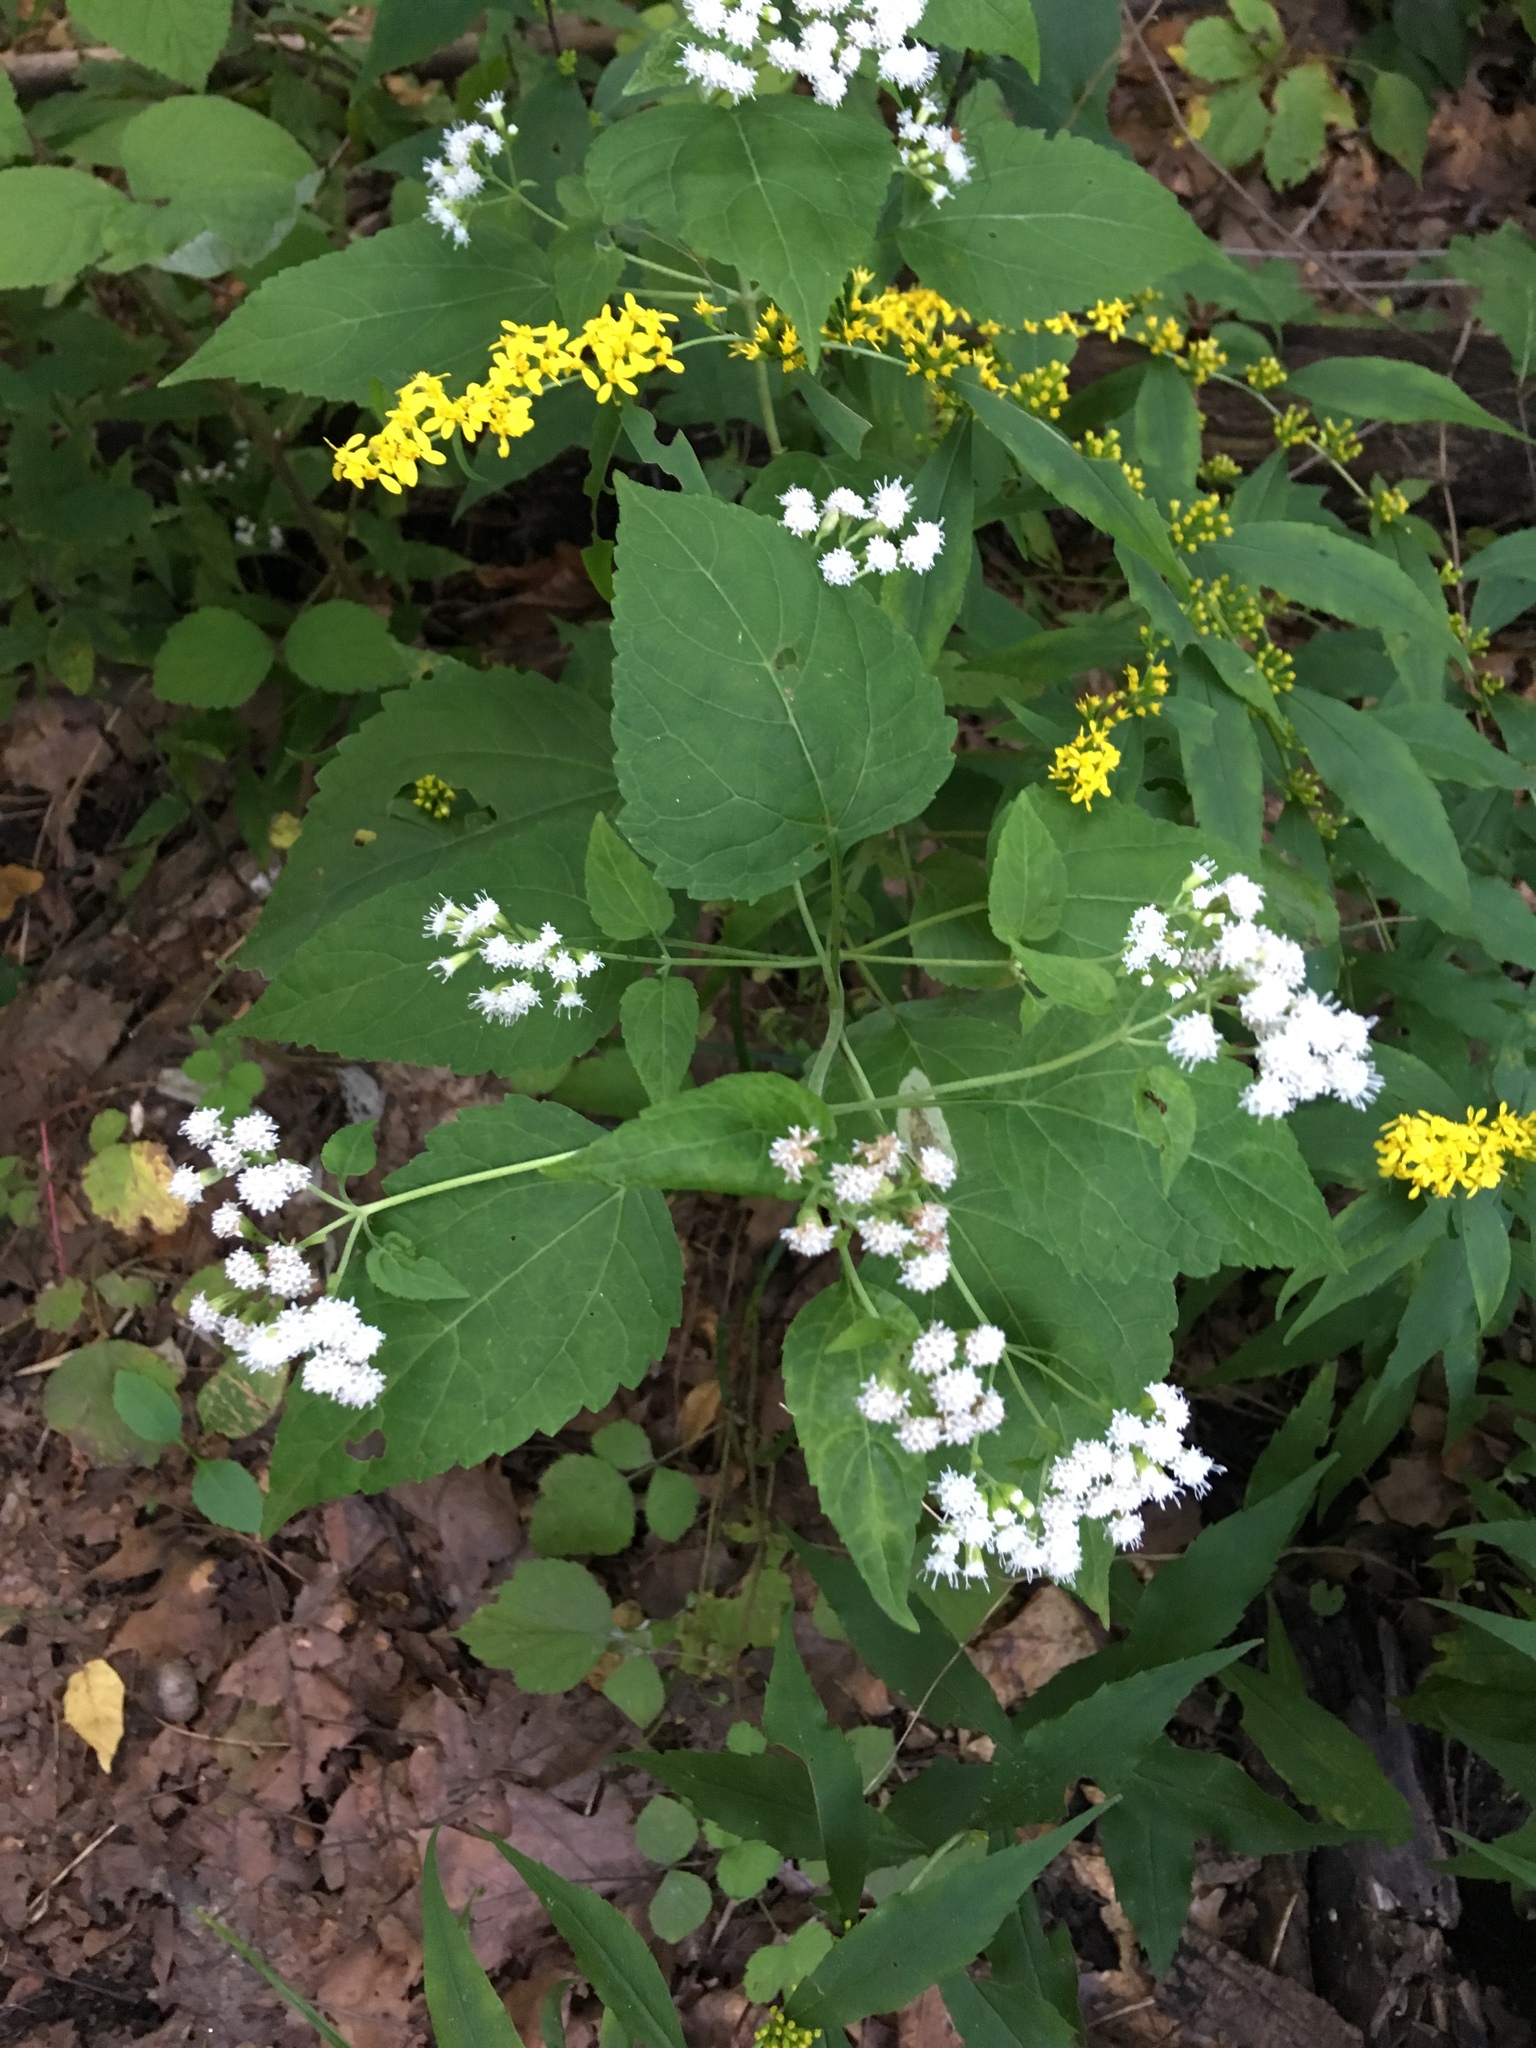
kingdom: Plantae
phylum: Tracheophyta
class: Magnoliopsida
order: Asterales
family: Asteraceae
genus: Ageratina
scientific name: Ageratina altissima
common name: White snakeroot
